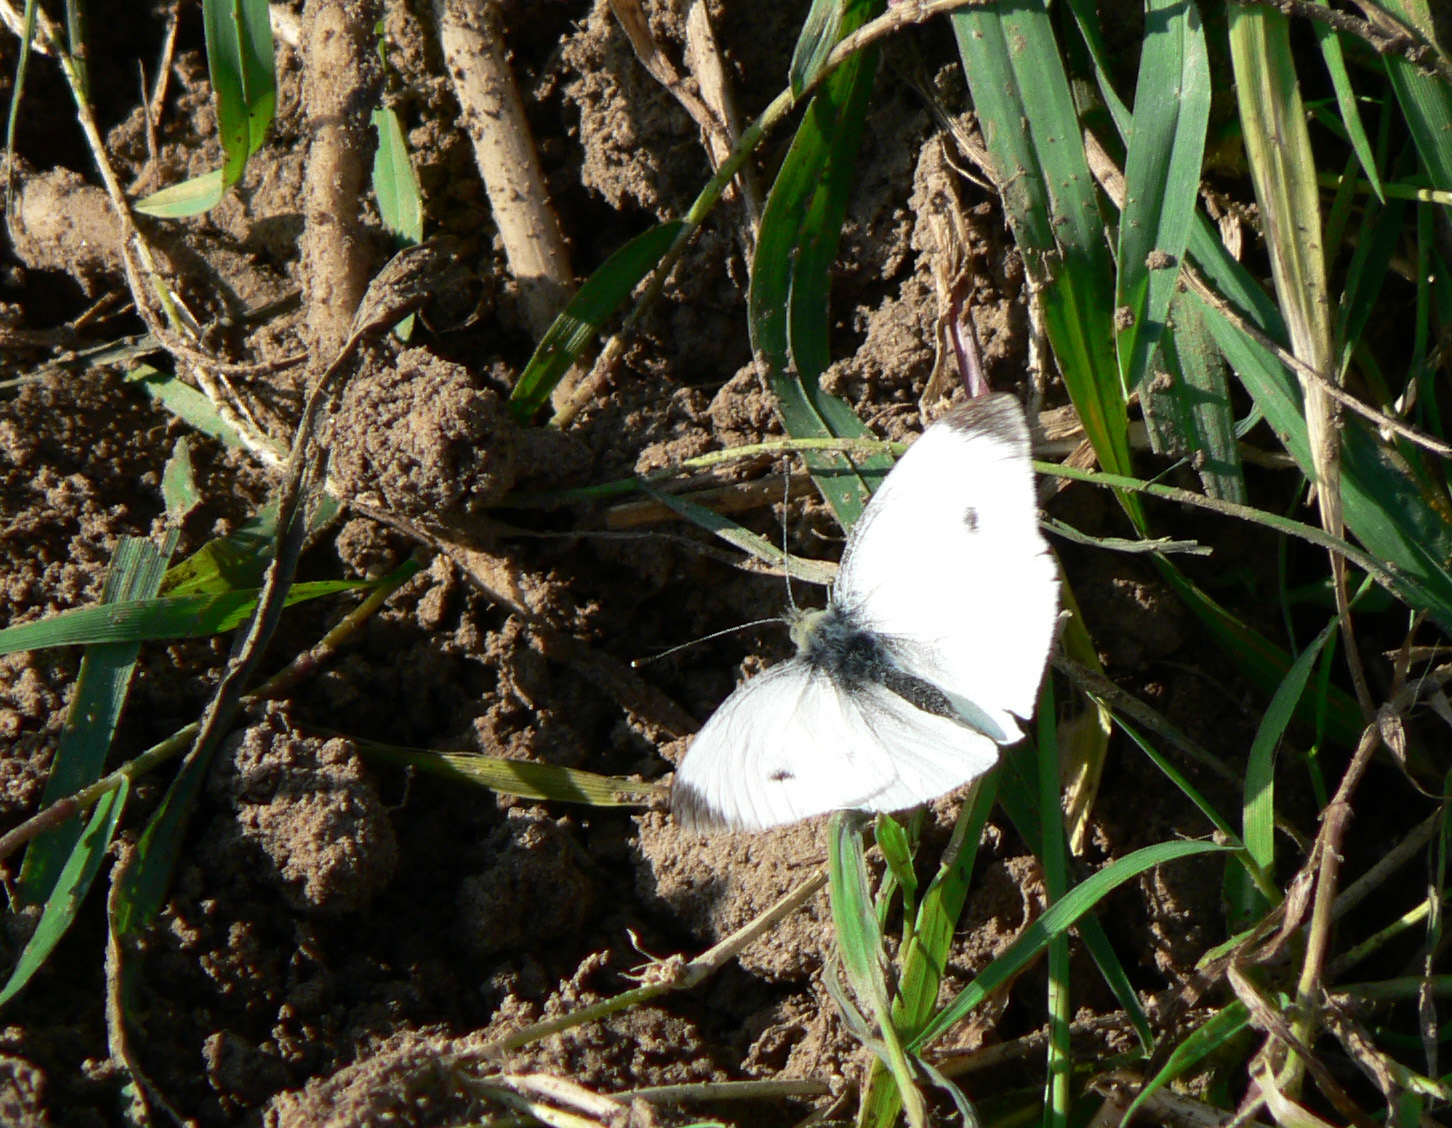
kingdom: Animalia
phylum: Arthropoda
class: Insecta
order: Lepidoptera
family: Pieridae
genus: Pieris
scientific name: Pieris rapae
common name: Small white
